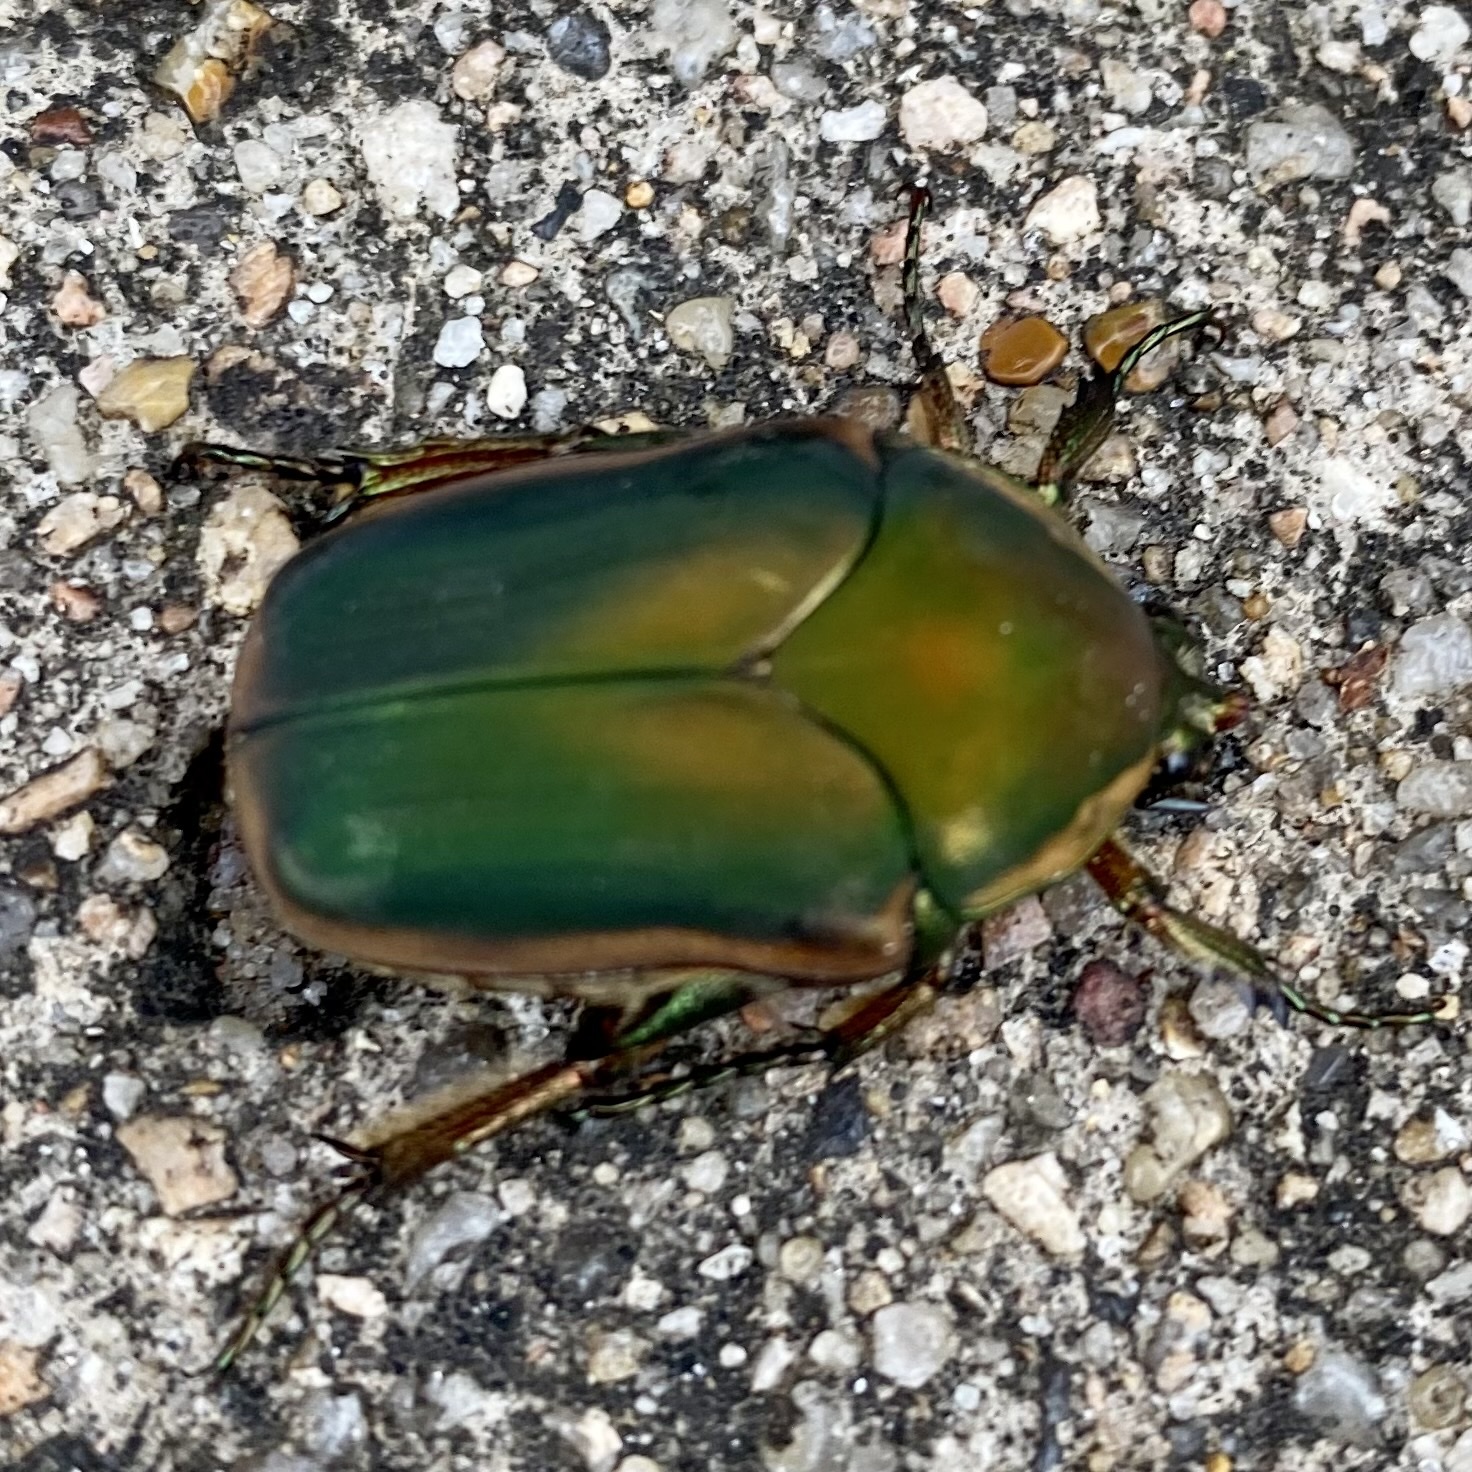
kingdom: Animalia
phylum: Arthropoda
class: Insecta
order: Coleoptera
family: Scarabaeidae
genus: Cotinis
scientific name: Cotinis nitida
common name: Common green june beetle
